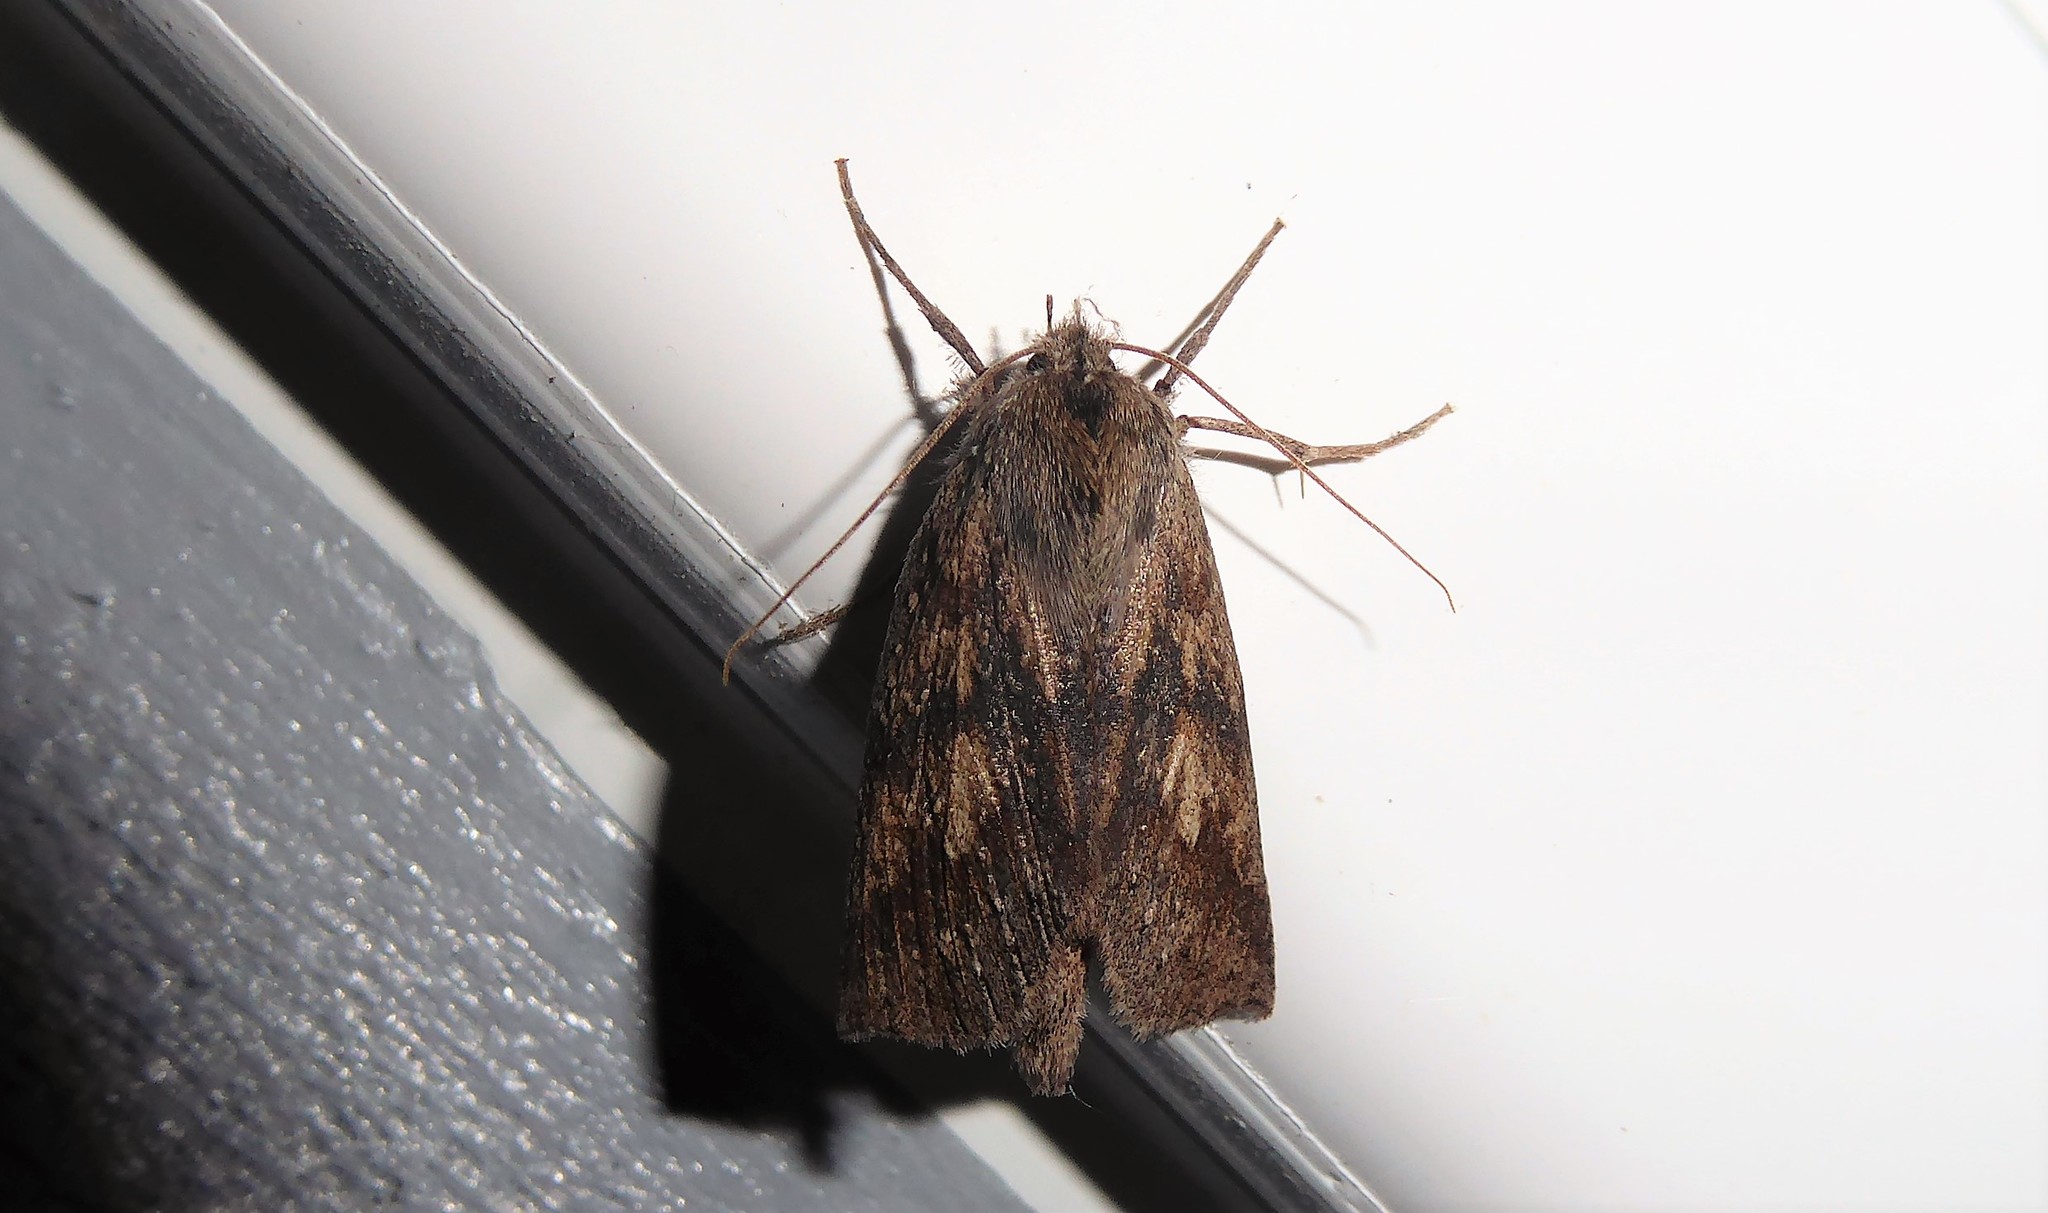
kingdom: Animalia
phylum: Arthropoda
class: Insecta
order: Lepidoptera
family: Geometridae
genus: Declana
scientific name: Declana leptomera
